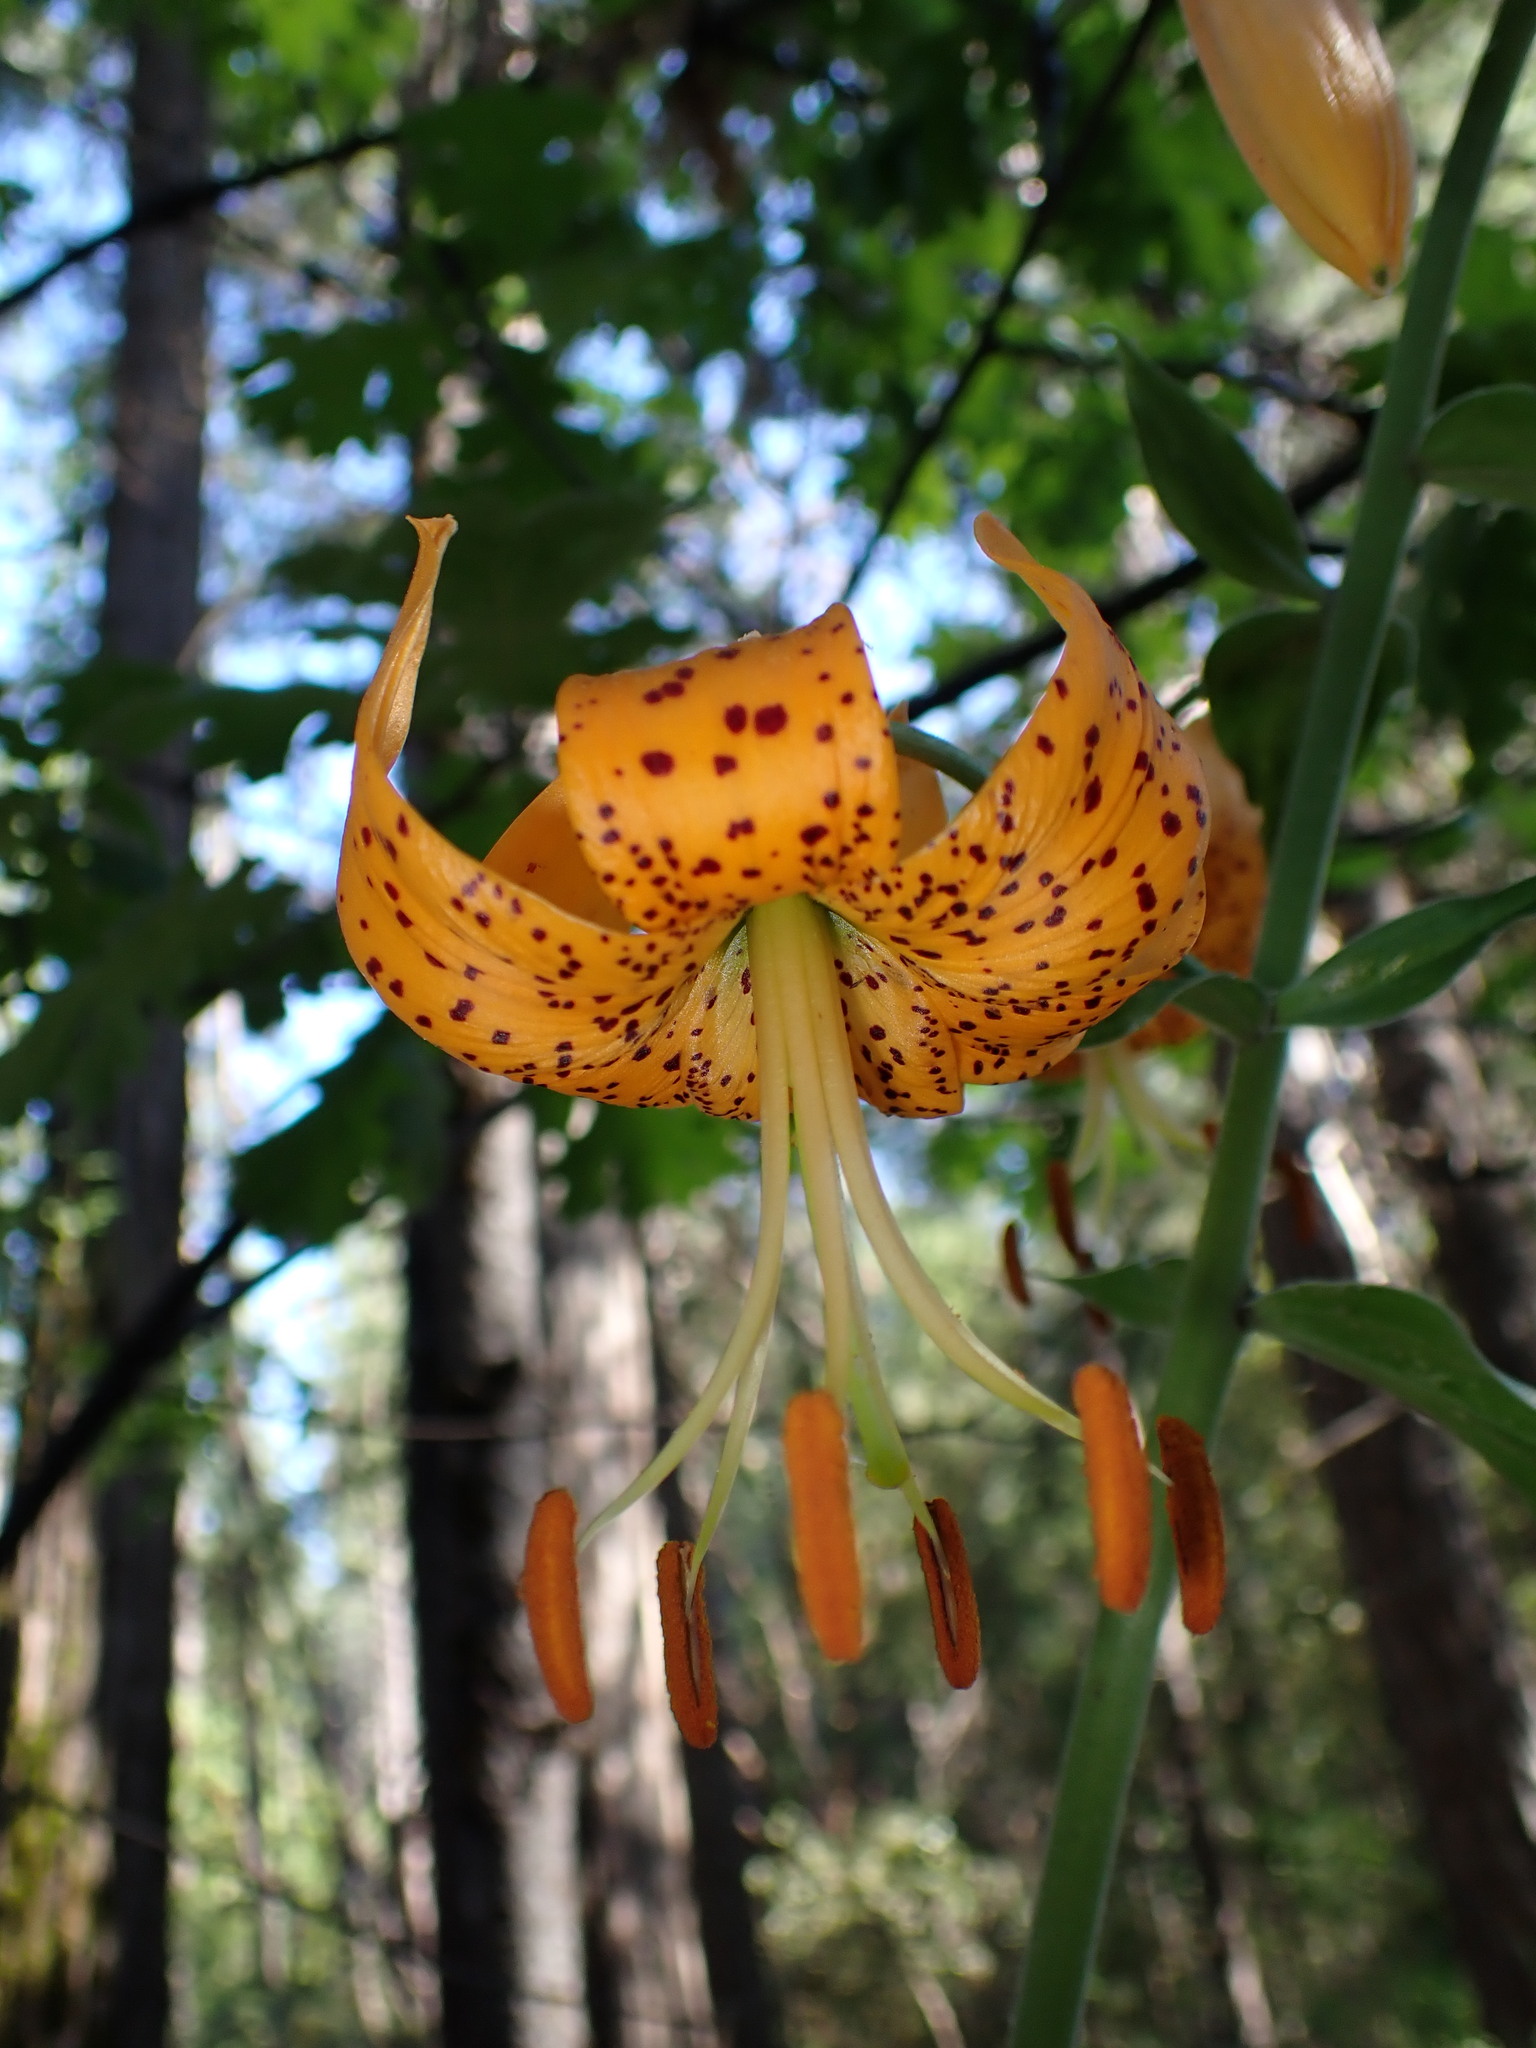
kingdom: Plantae
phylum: Tracheophyta
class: Liliopsida
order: Liliales
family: Liliaceae
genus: Lilium
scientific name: Lilium humboldtii
